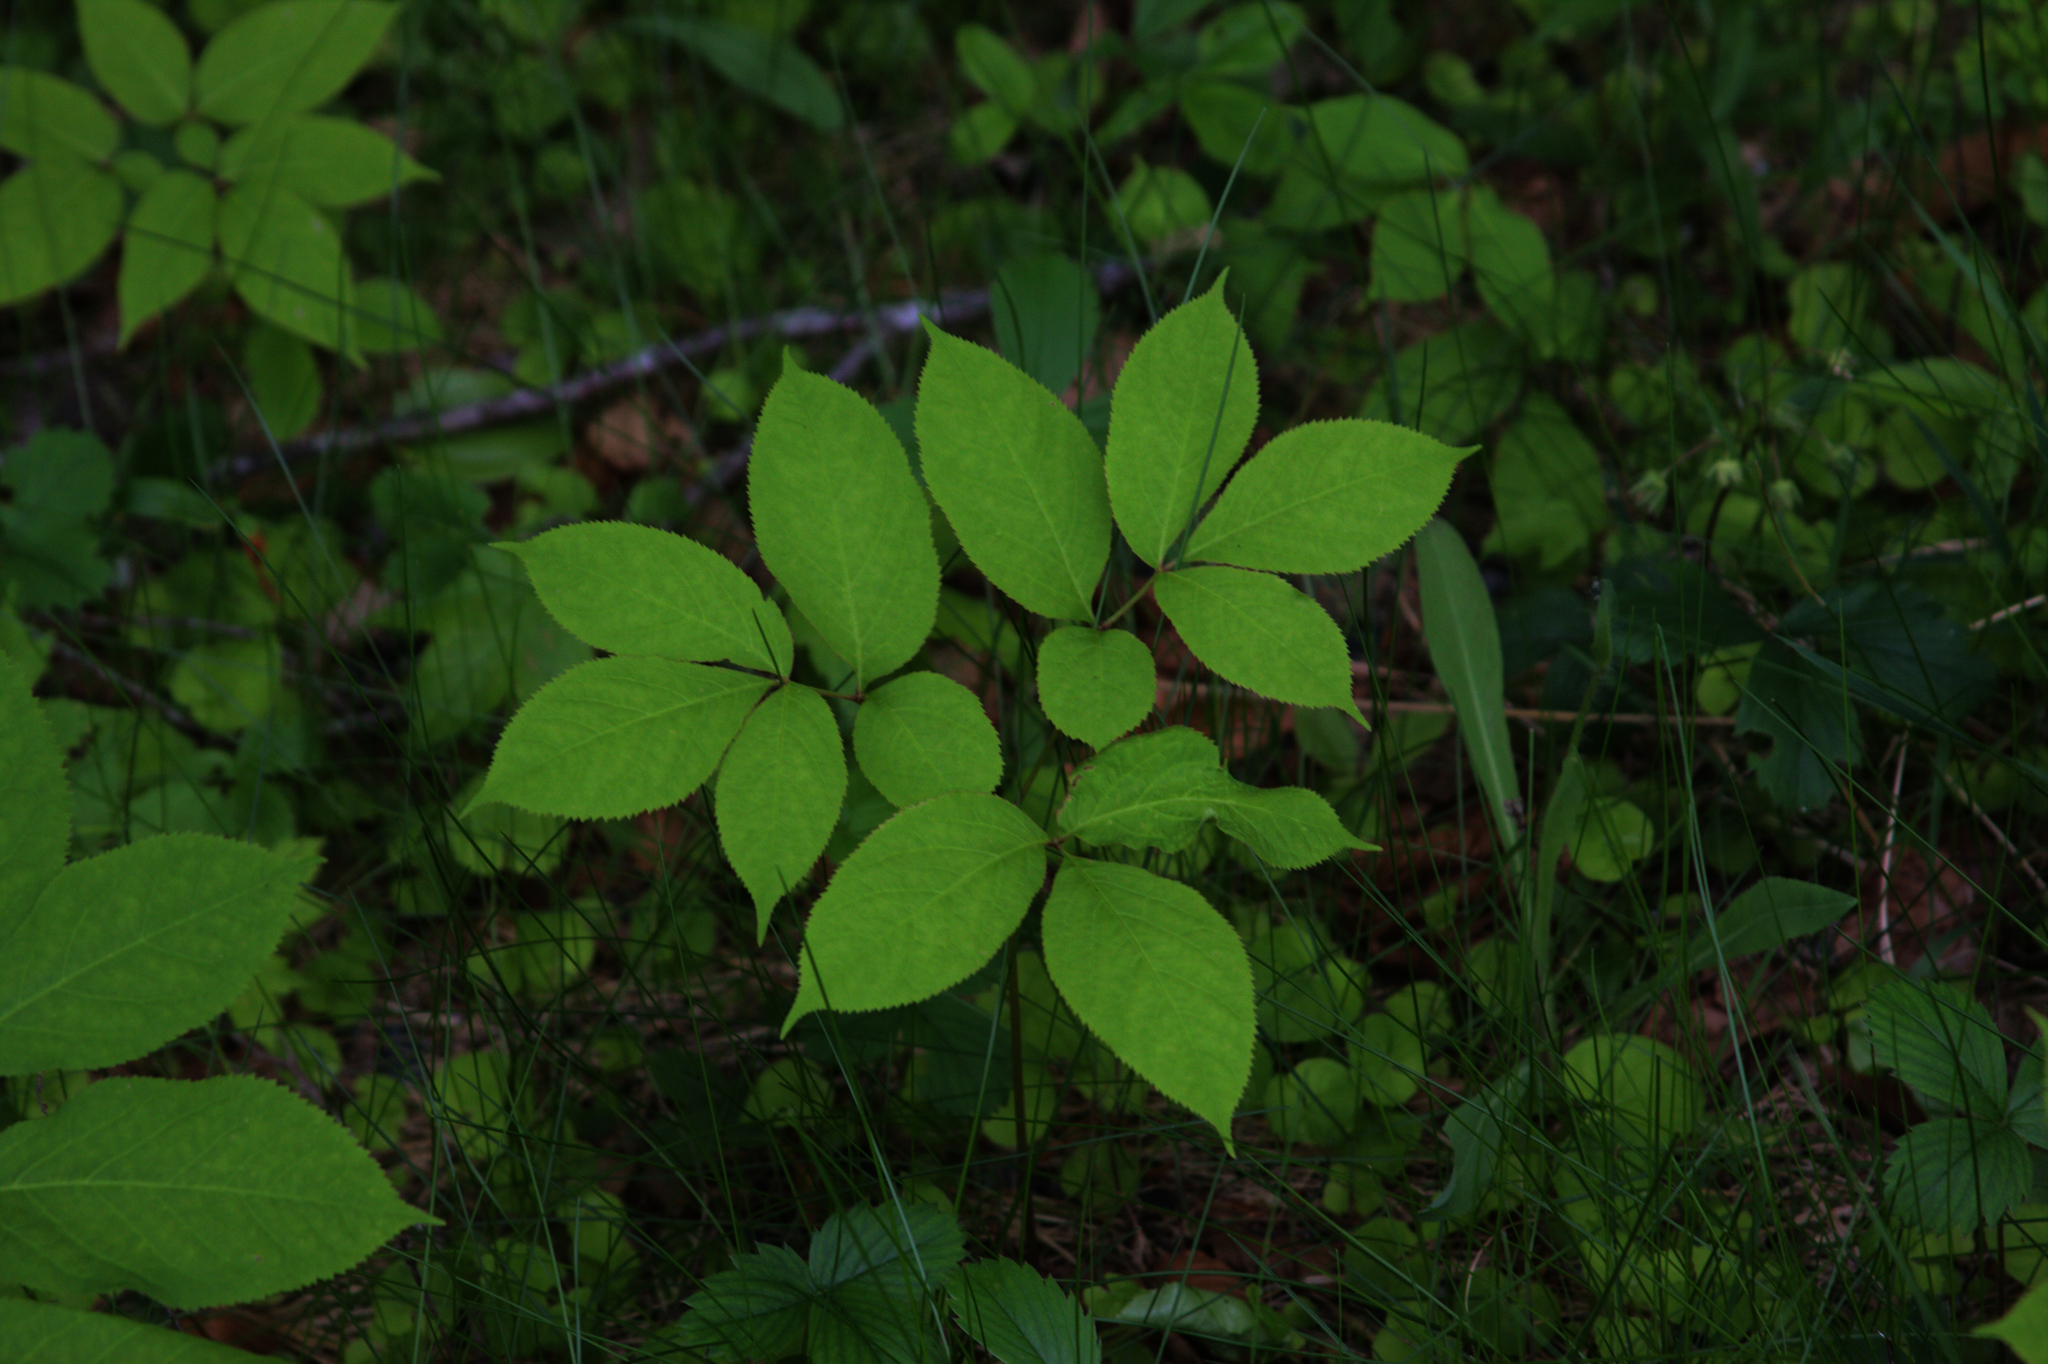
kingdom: Plantae
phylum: Tracheophyta
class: Magnoliopsida
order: Apiales
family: Araliaceae
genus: Aralia
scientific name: Aralia nudicaulis
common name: Wild sarsaparilla
